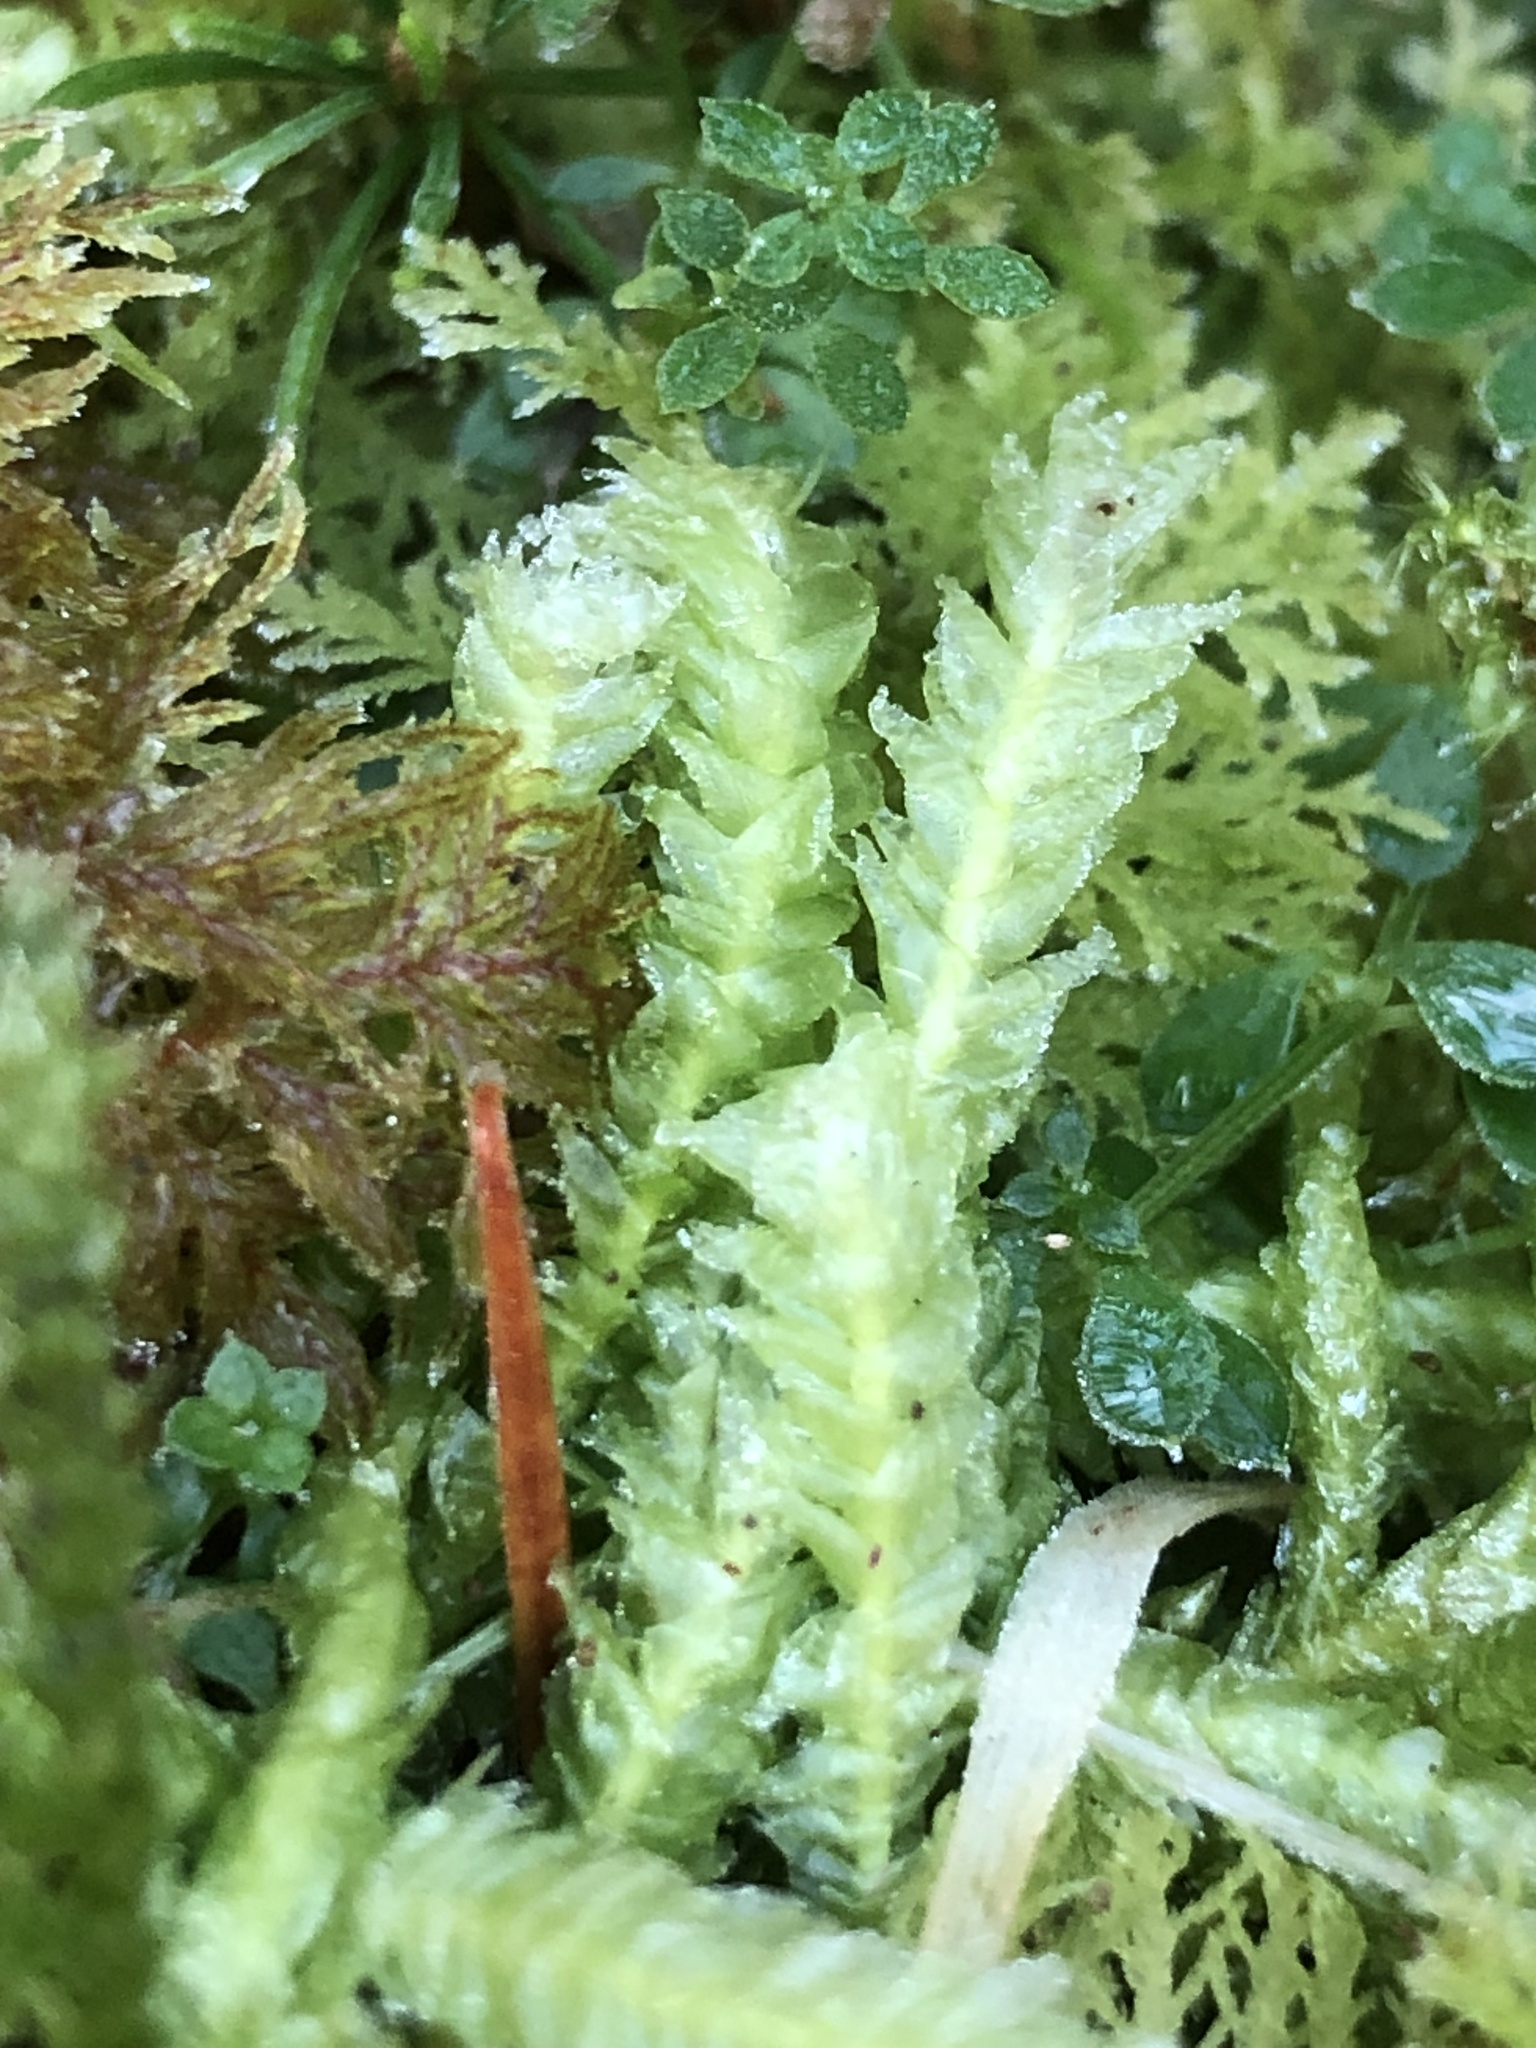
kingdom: Plantae
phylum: Bryophyta
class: Bryopsida
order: Hypnales
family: Plagiotheciaceae
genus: Plagiothecium
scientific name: Plagiothecium undulatum
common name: Waved silk-moss
